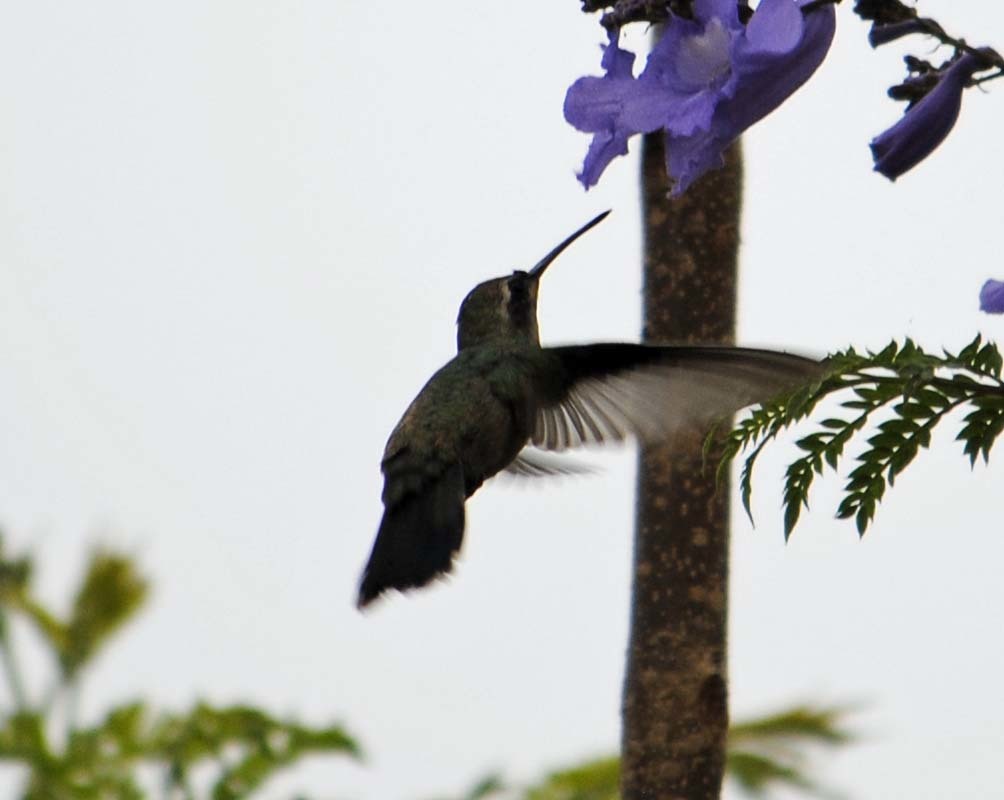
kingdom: Animalia
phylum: Chordata
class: Aves
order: Apodiformes
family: Trochilidae
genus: Cynanthus
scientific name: Cynanthus latirostris
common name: Broad-billed hummingbird
